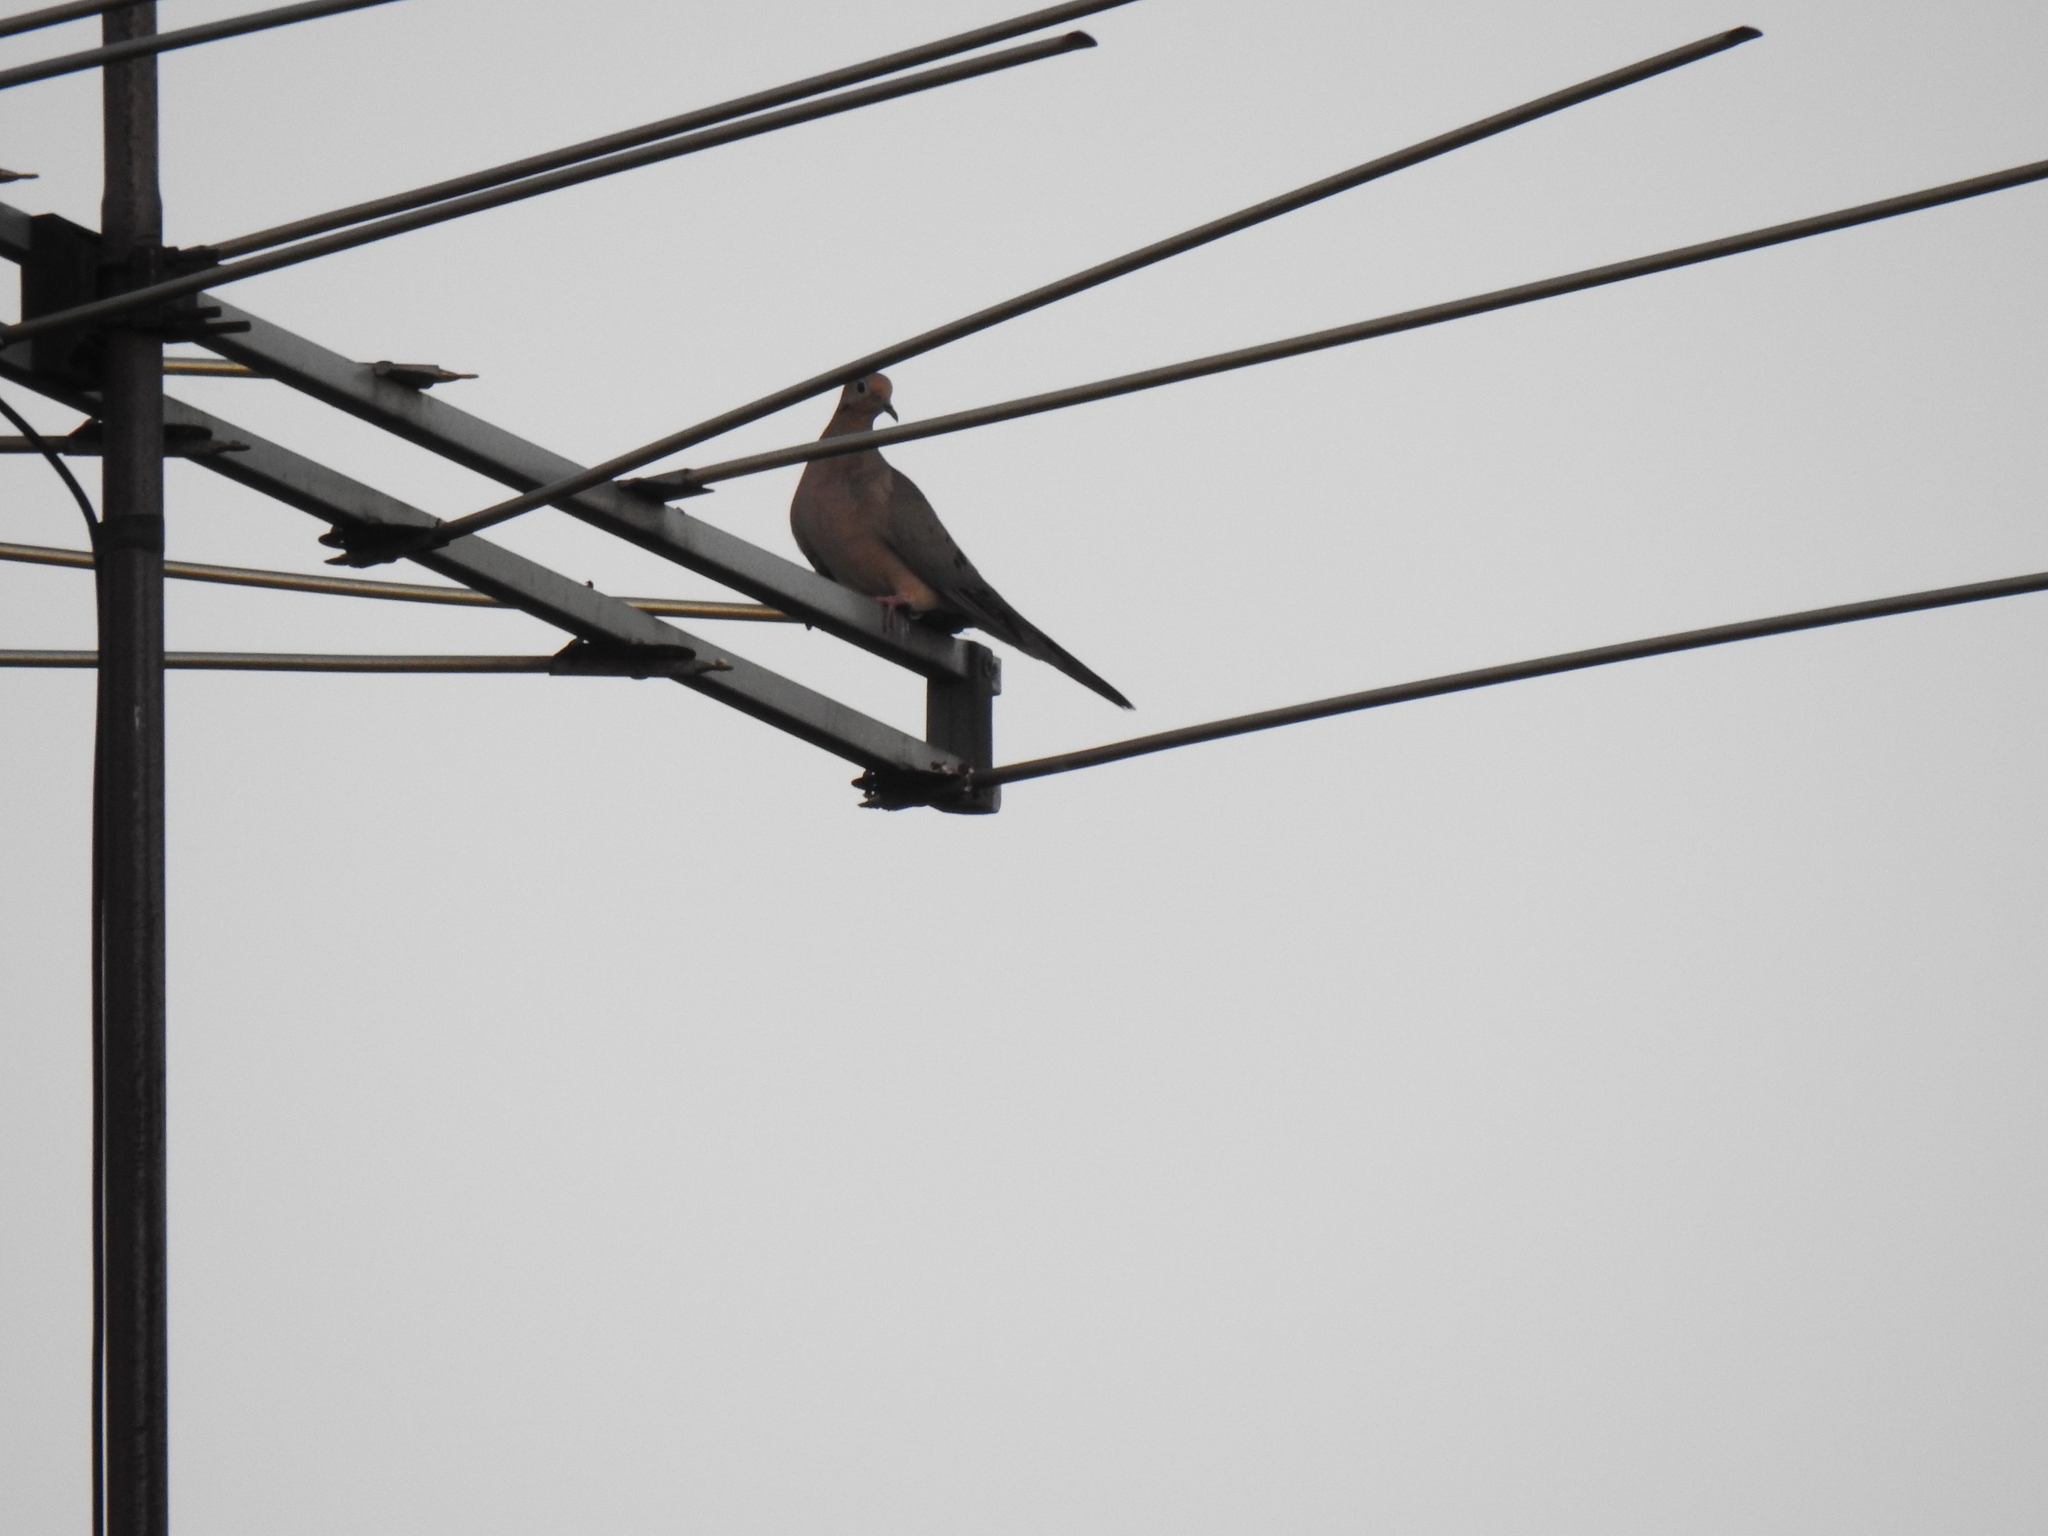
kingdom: Animalia
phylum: Chordata
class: Aves
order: Columbiformes
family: Columbidae
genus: Zenaida
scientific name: Zenaida macroura
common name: Mourning dove
